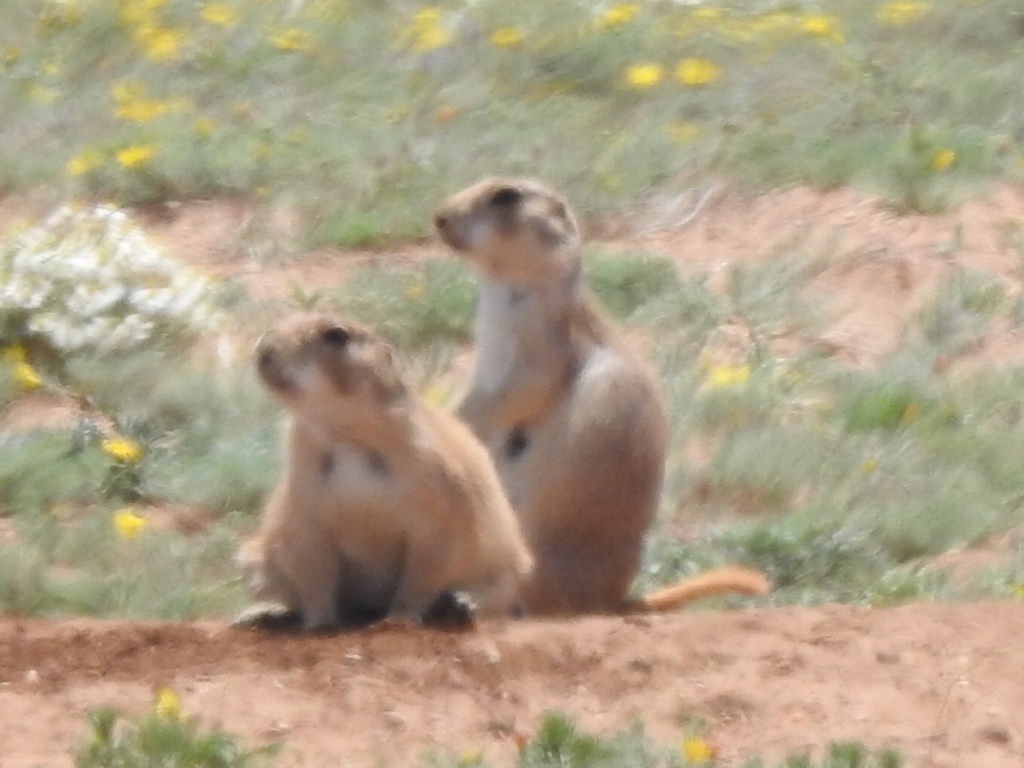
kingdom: Animalia
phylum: Chordata
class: Mammalia
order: Rodentia
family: Sciuridae
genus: Cynomys
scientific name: Cynomys ludovicianus
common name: Black-tailed prairie dog
